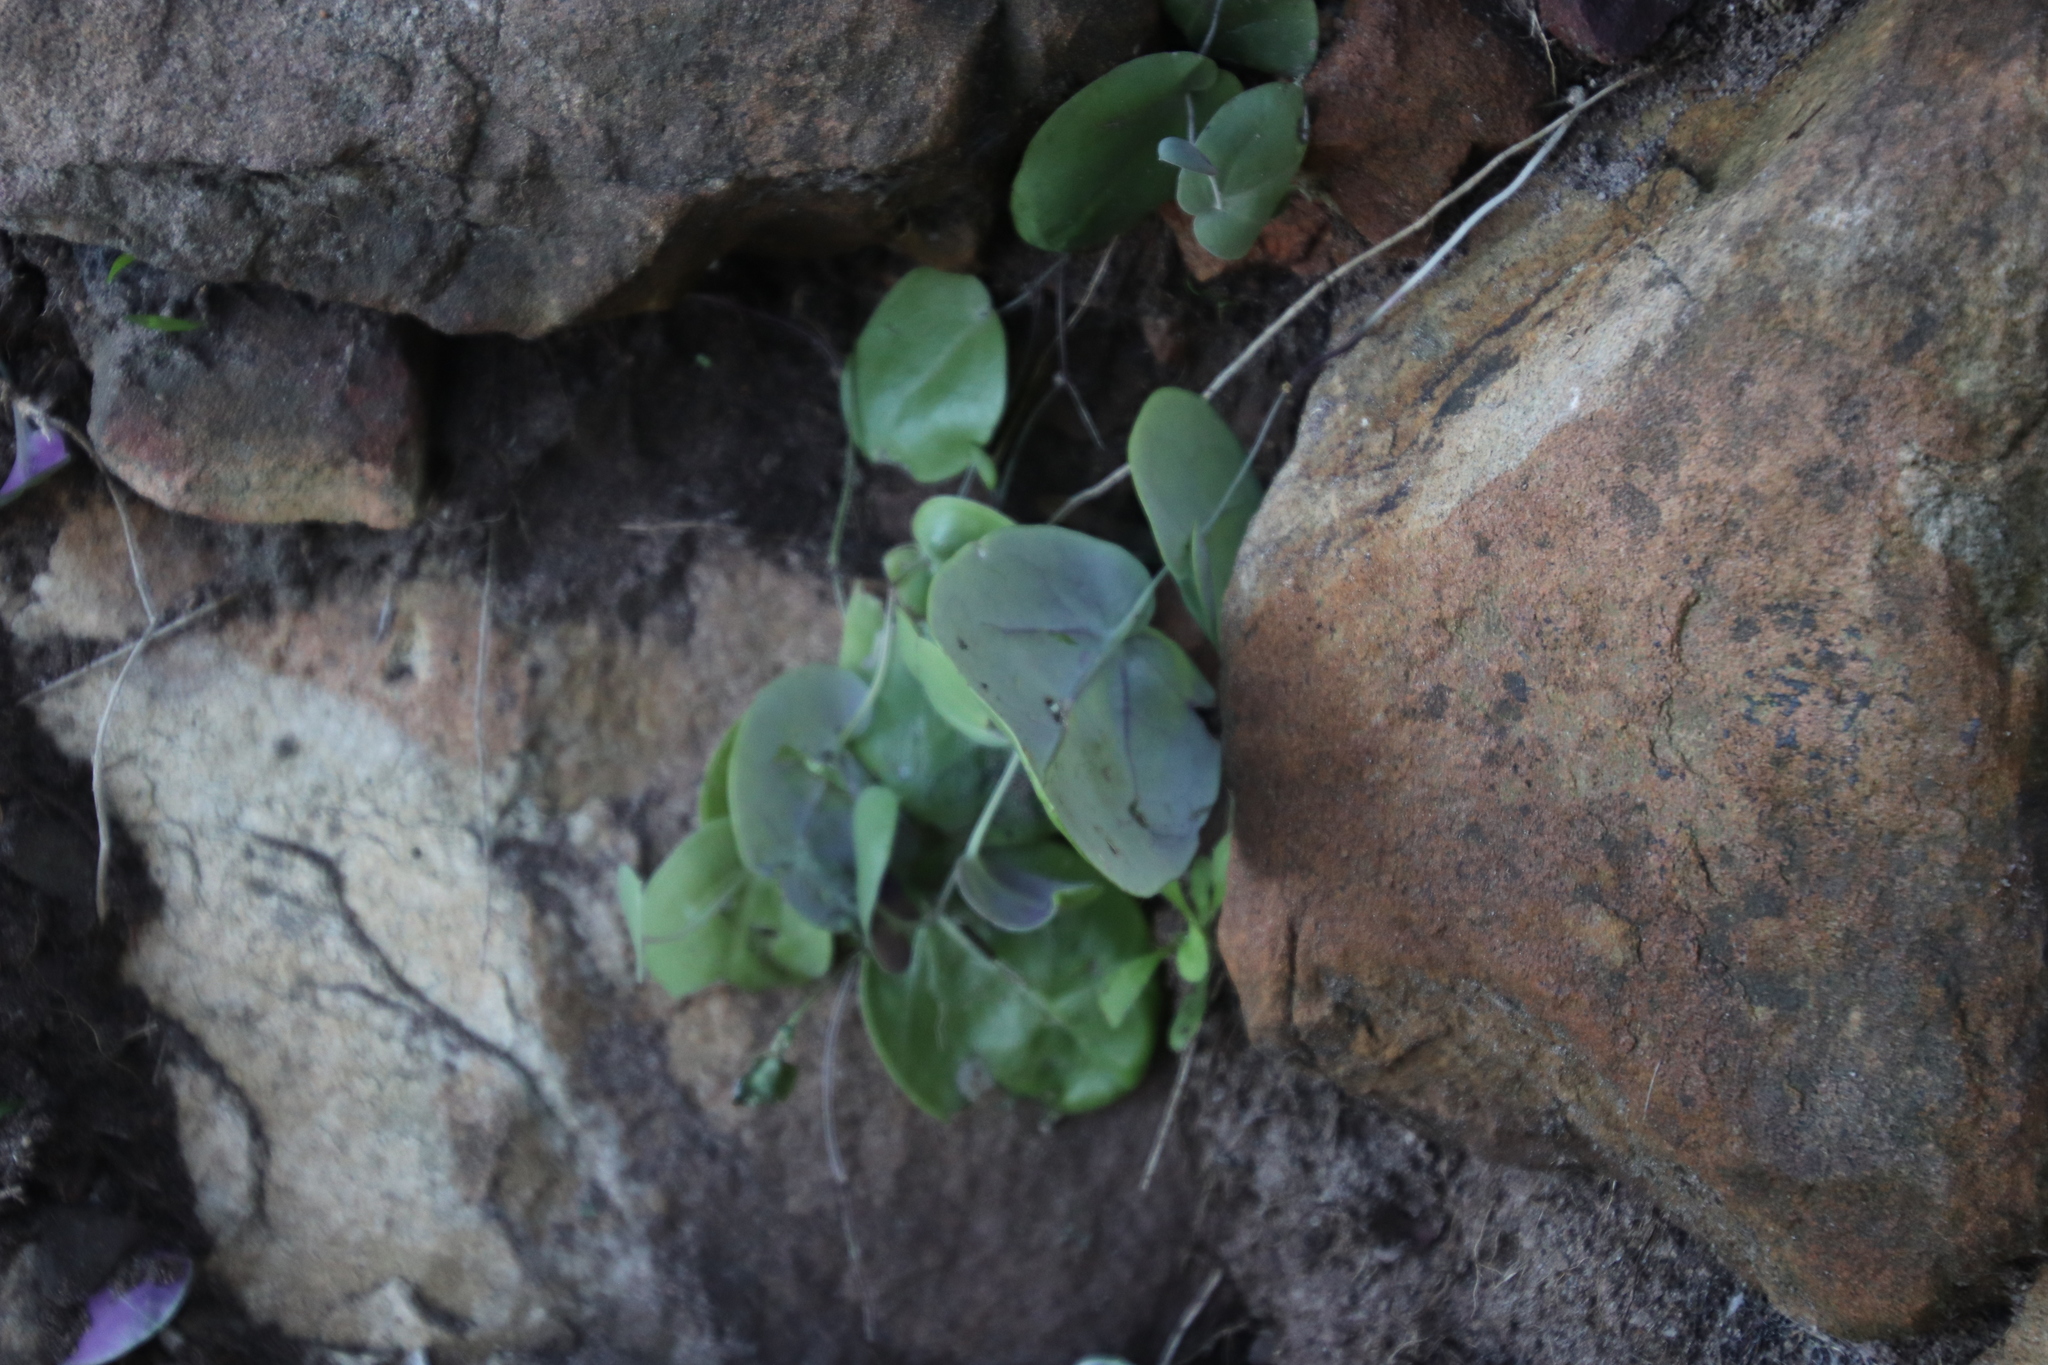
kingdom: Plantae
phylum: Tracheophyta
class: Magnoliopsida
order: Asterales
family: Asteraceae
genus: Othonna
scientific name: Othonna undulosa
